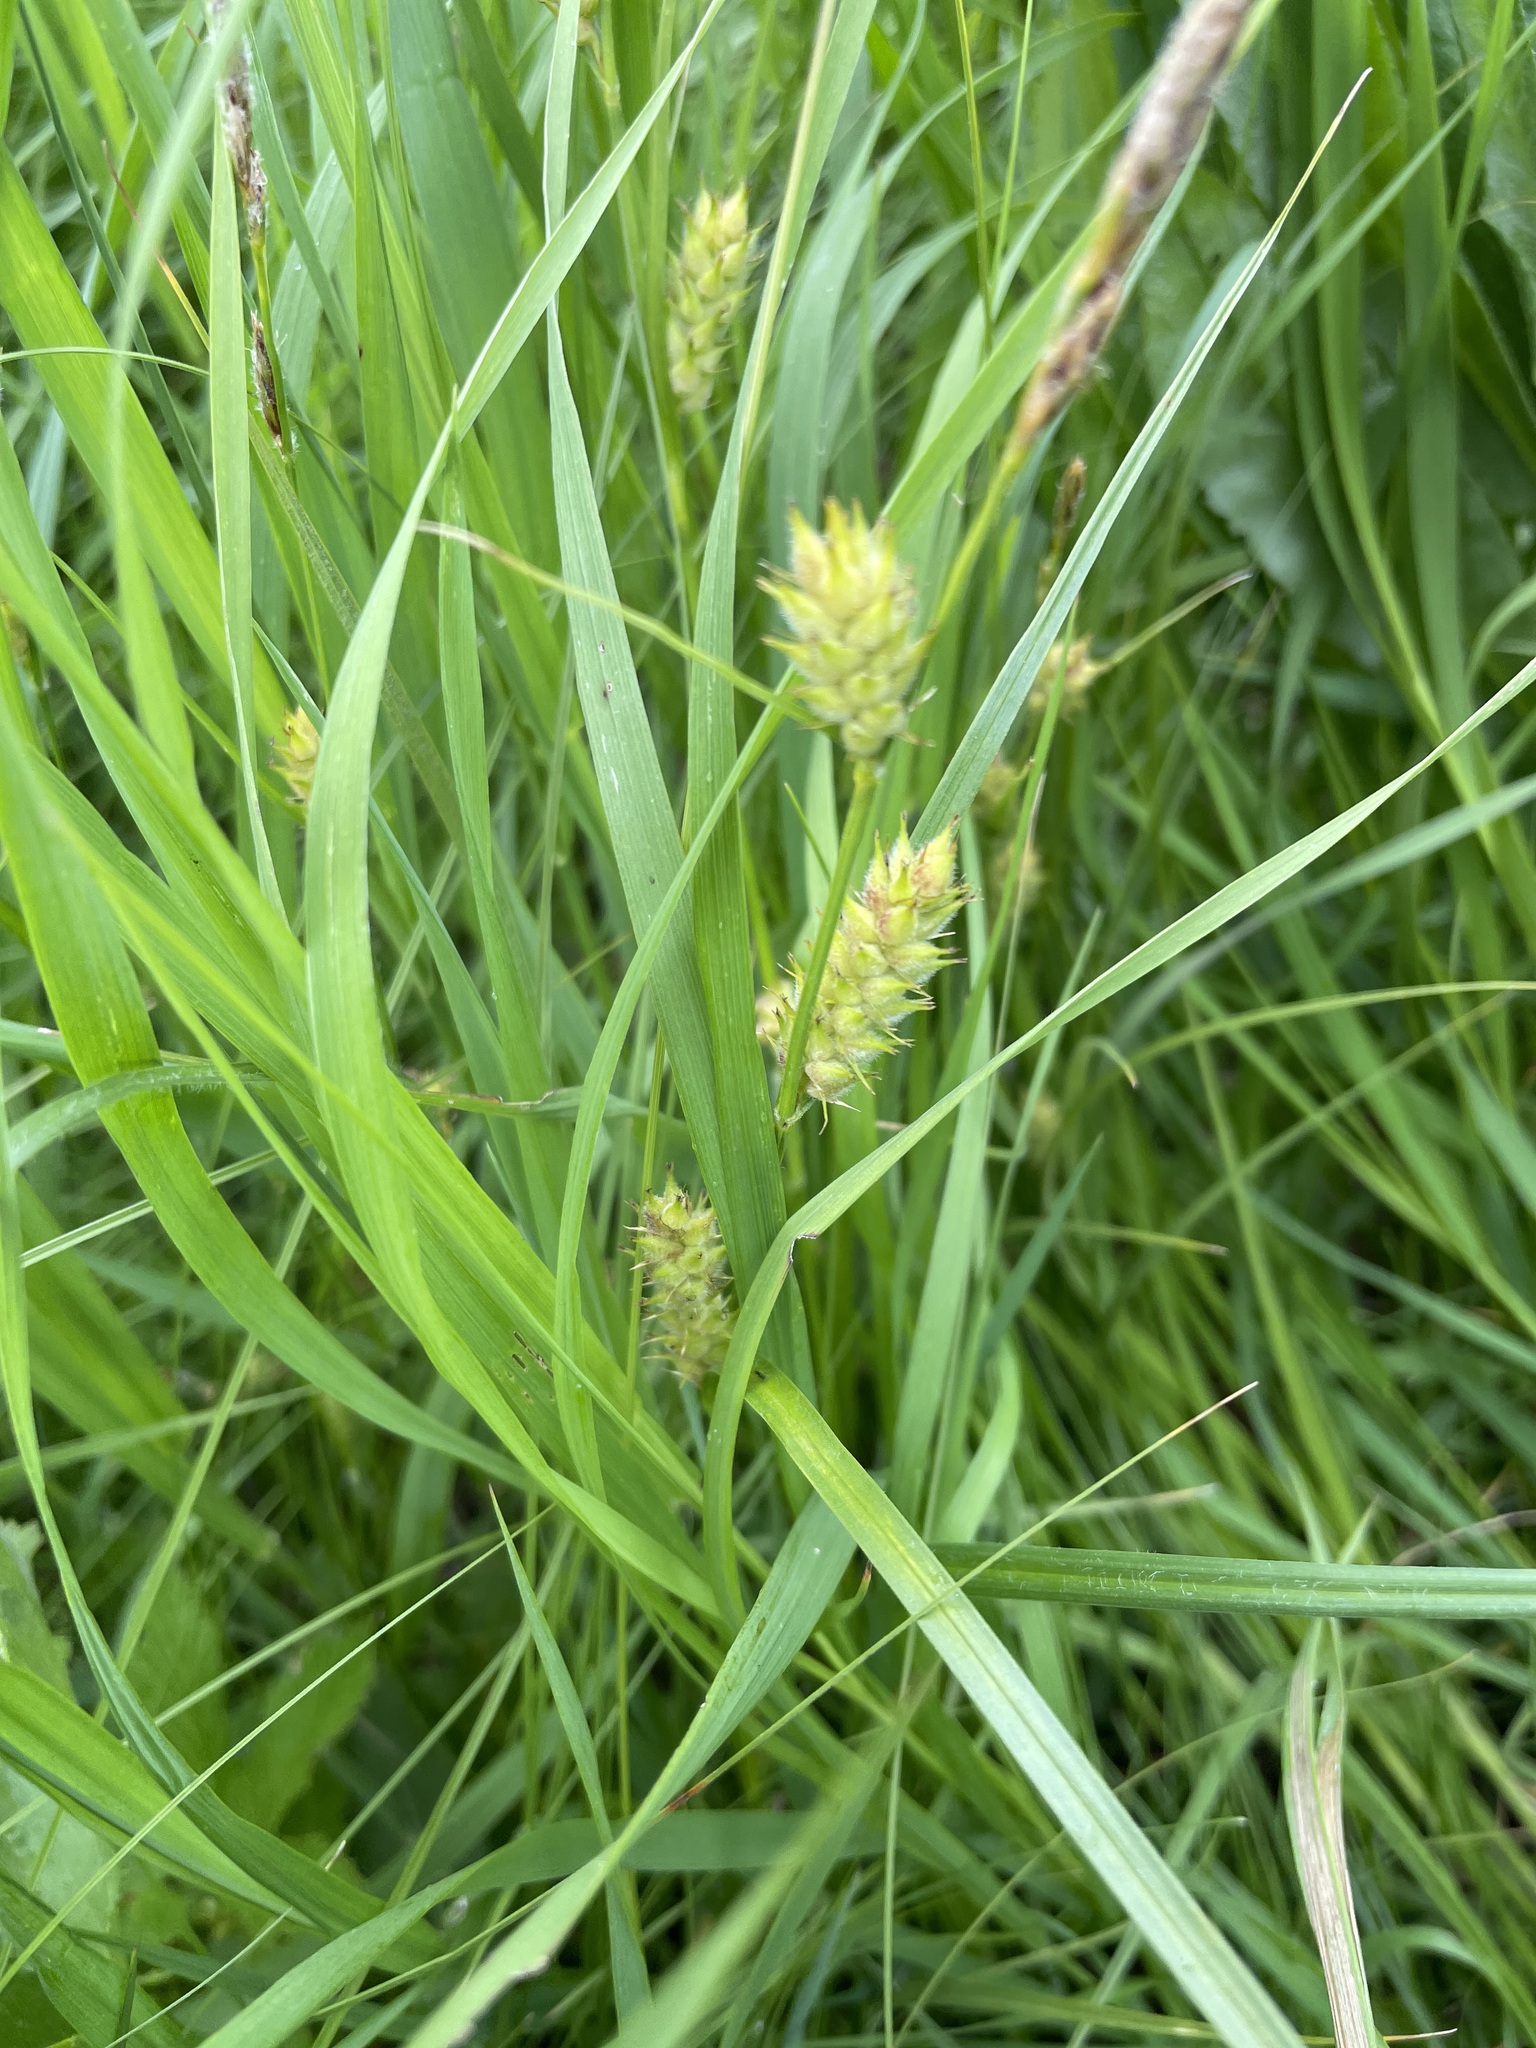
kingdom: Plantae
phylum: Tracheophyta
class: Liliopsida
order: Poales
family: Cyperaceae
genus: Carex
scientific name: Carex hirta
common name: Hairy sedge
